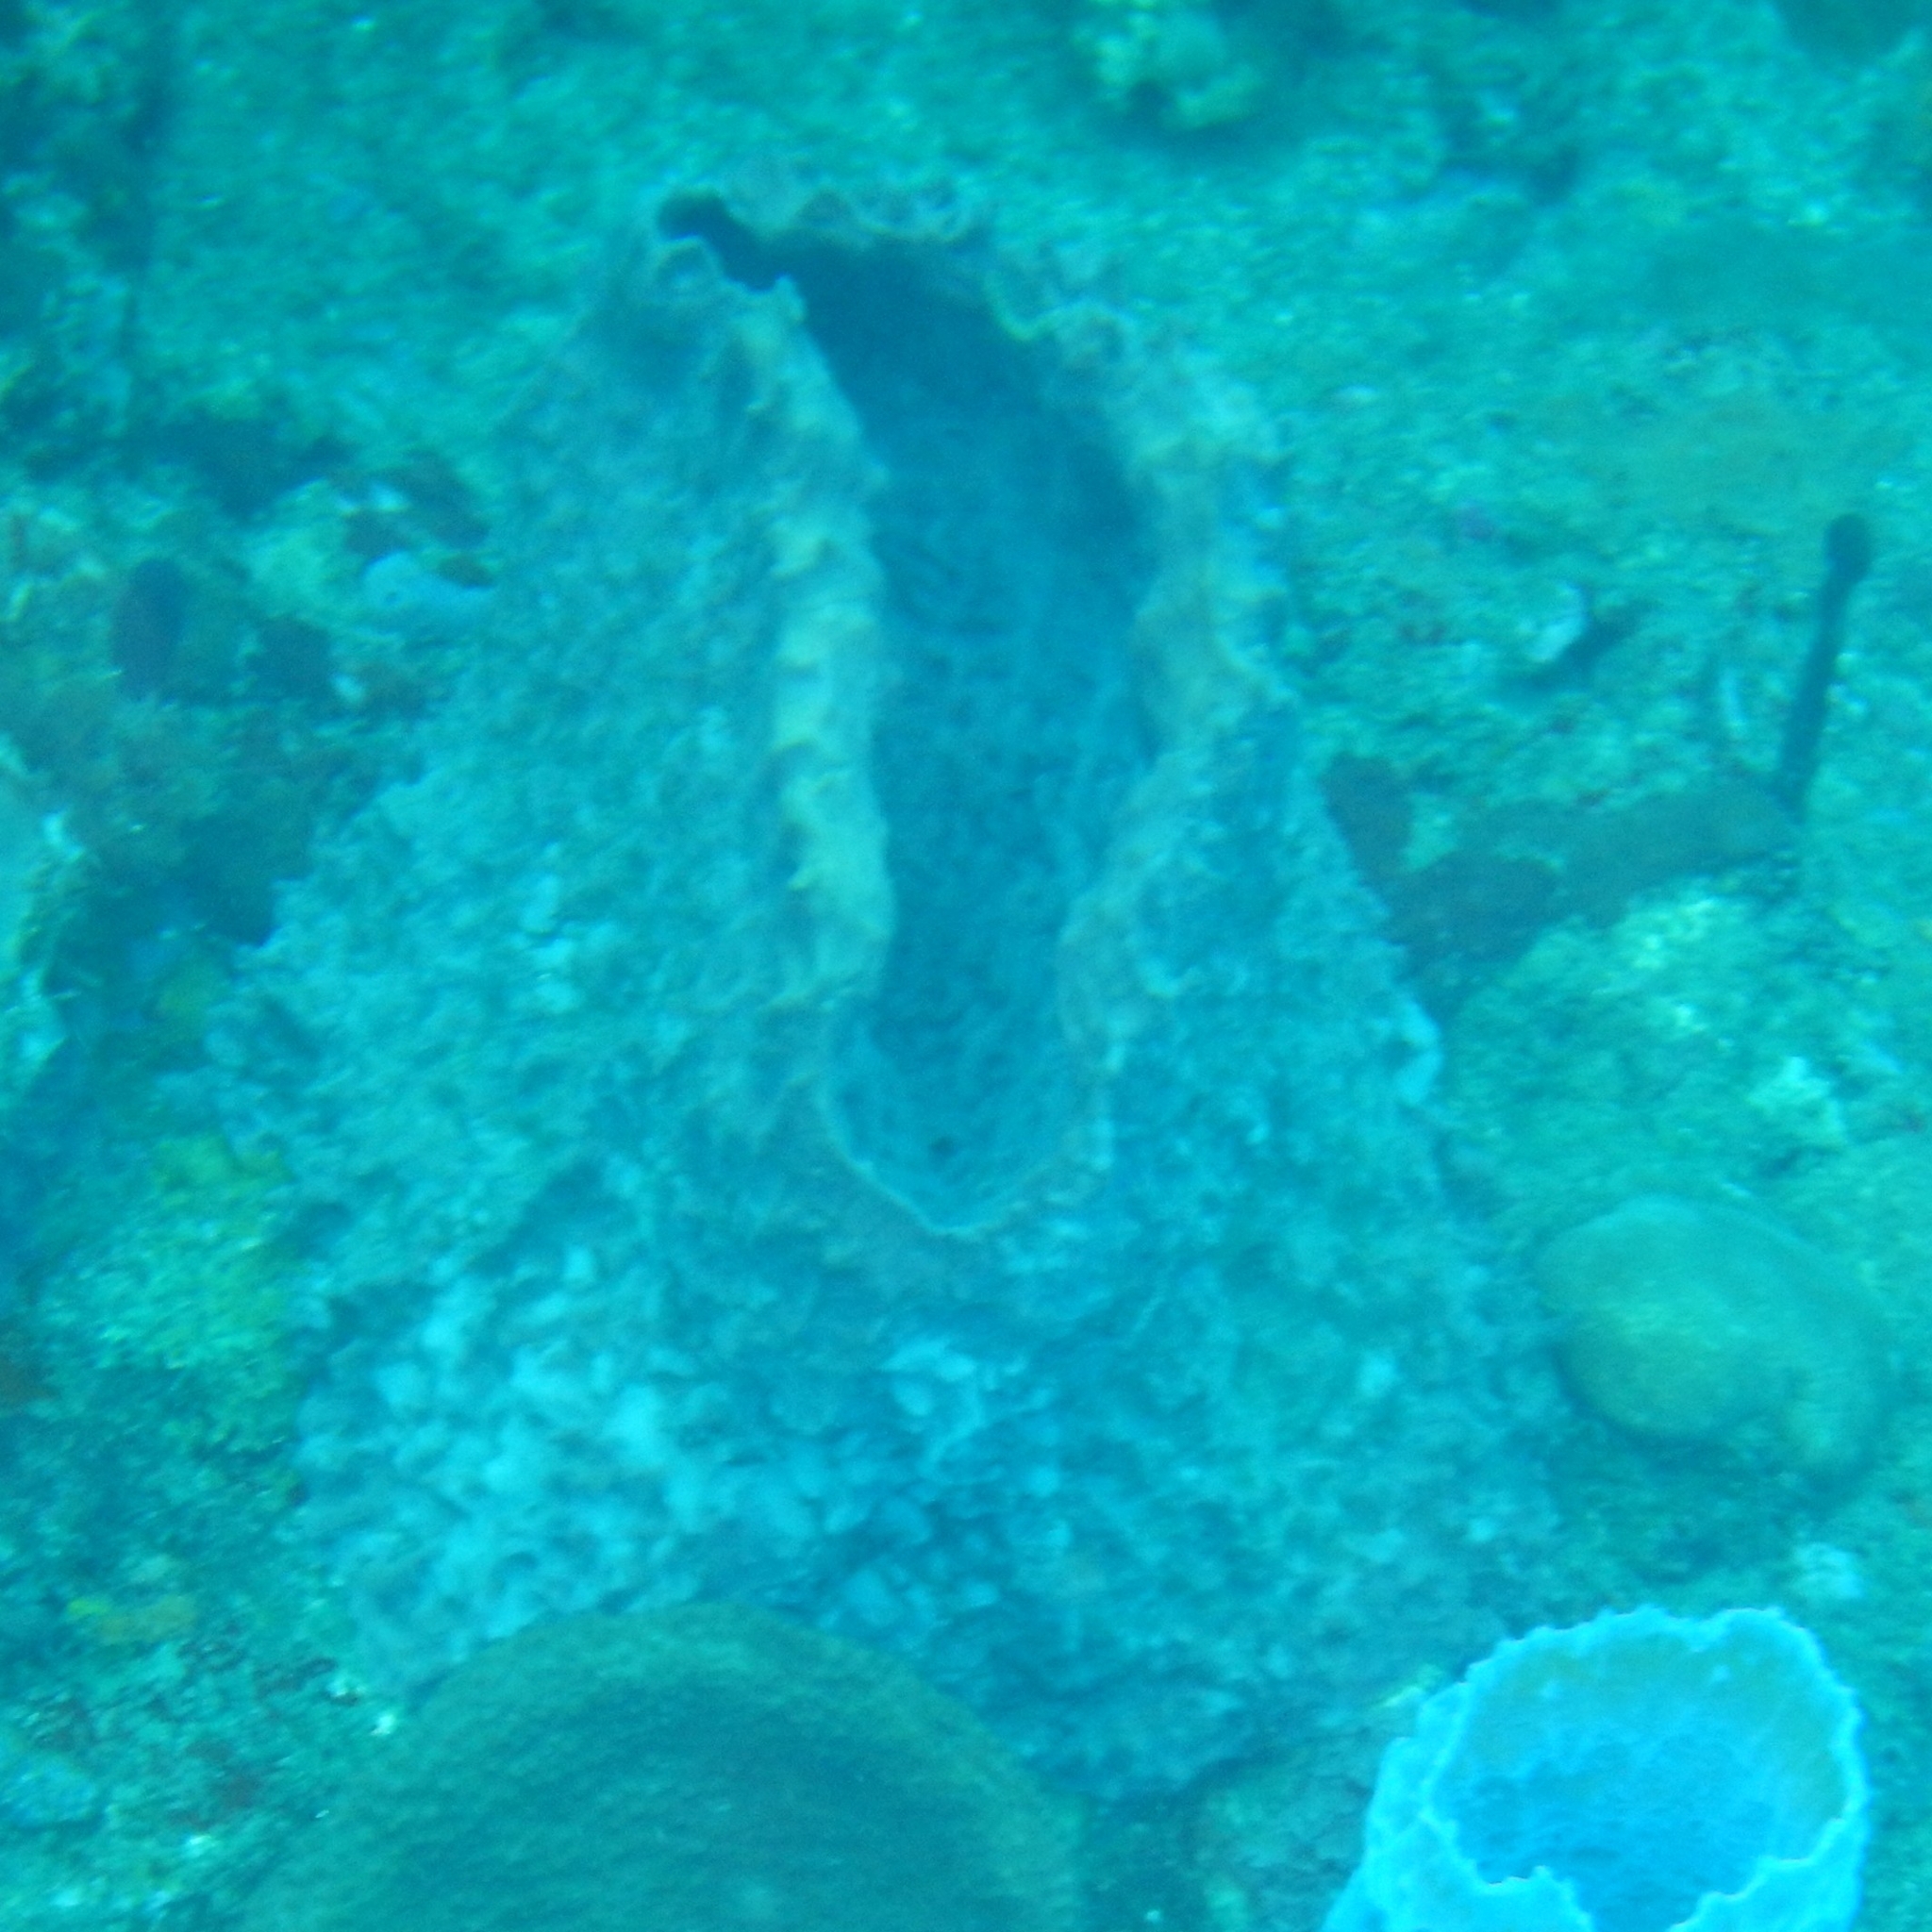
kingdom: Animalia
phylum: Porifera
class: Demospongiae
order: Haplosclerida
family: Petrosiidae
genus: Xestospongia
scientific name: Xestospongia muta
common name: Giant barrel sponge
